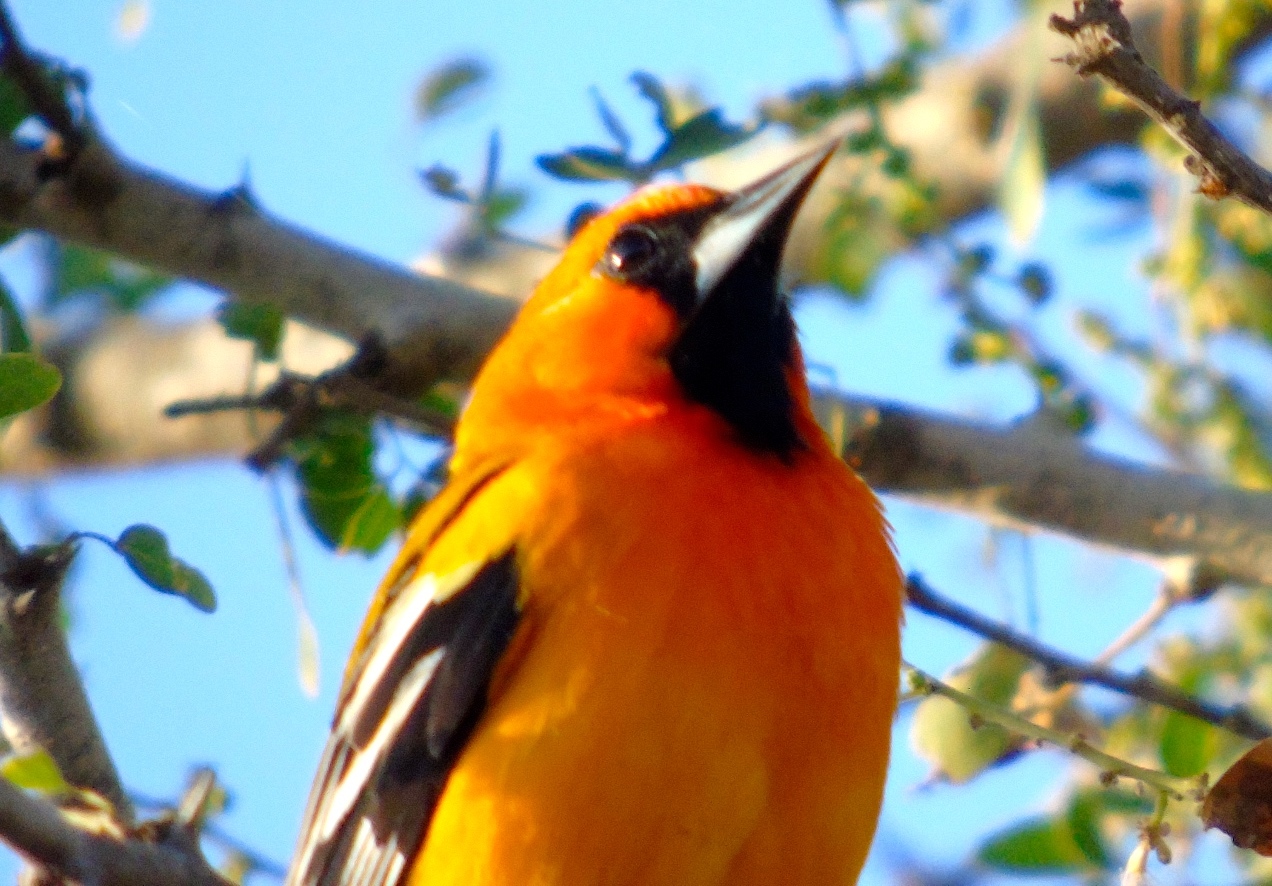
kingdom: Animalia
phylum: Chordata
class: Aves
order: Passeriformes
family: Icteridae
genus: Icterus
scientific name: Icterus pustulatus
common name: Streak-backed oriole
